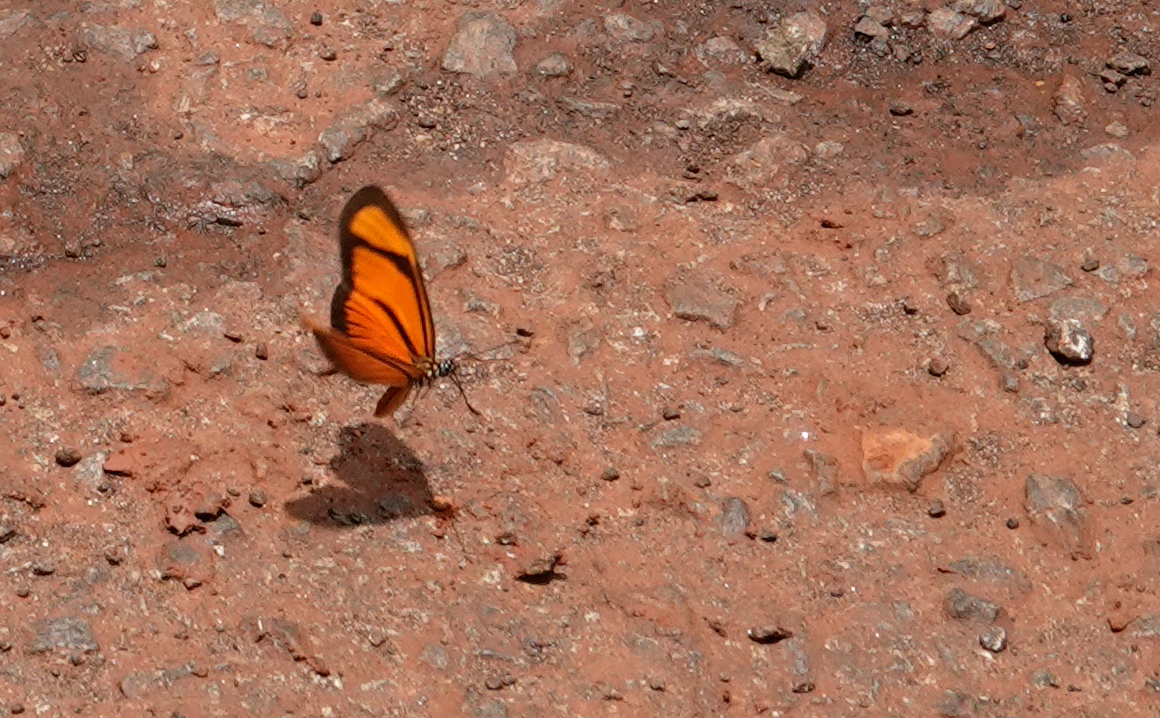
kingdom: Animalia
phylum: Arthropoda
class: Insecta
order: Lepidoptera
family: Nymphalidae
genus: Heliconius
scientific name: Heliconius aliphera
